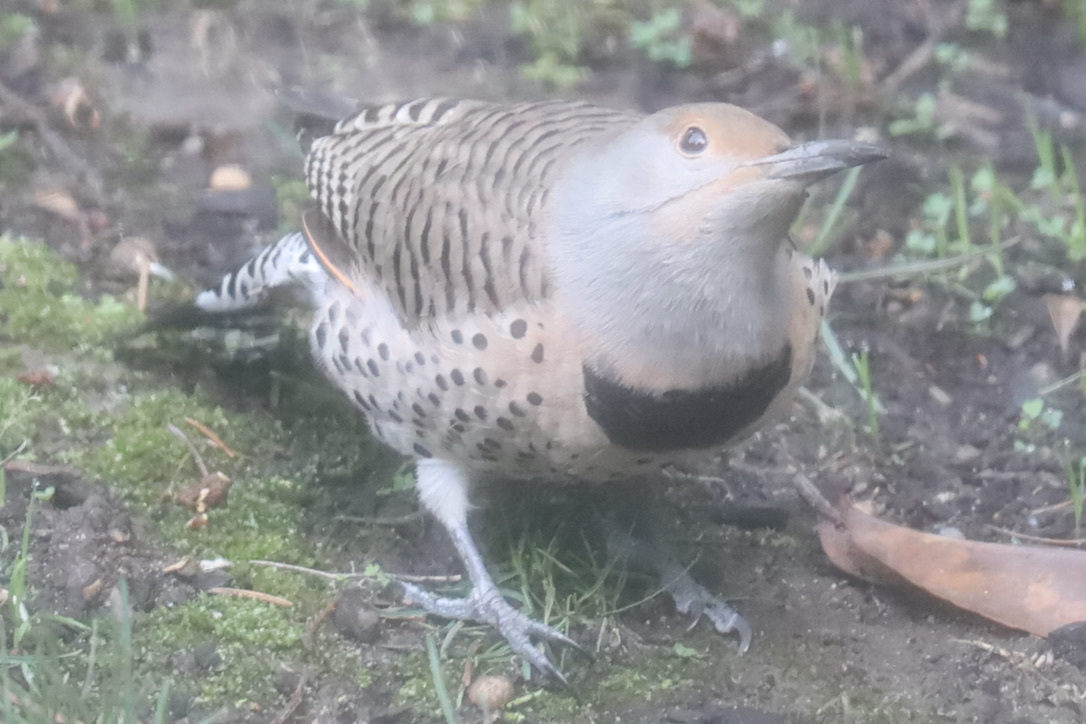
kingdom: Animalia
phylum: Chordata
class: Aves
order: Piciformes
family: Picidae
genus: Colaptes
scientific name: Colaptes auratus
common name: Northern flicker
